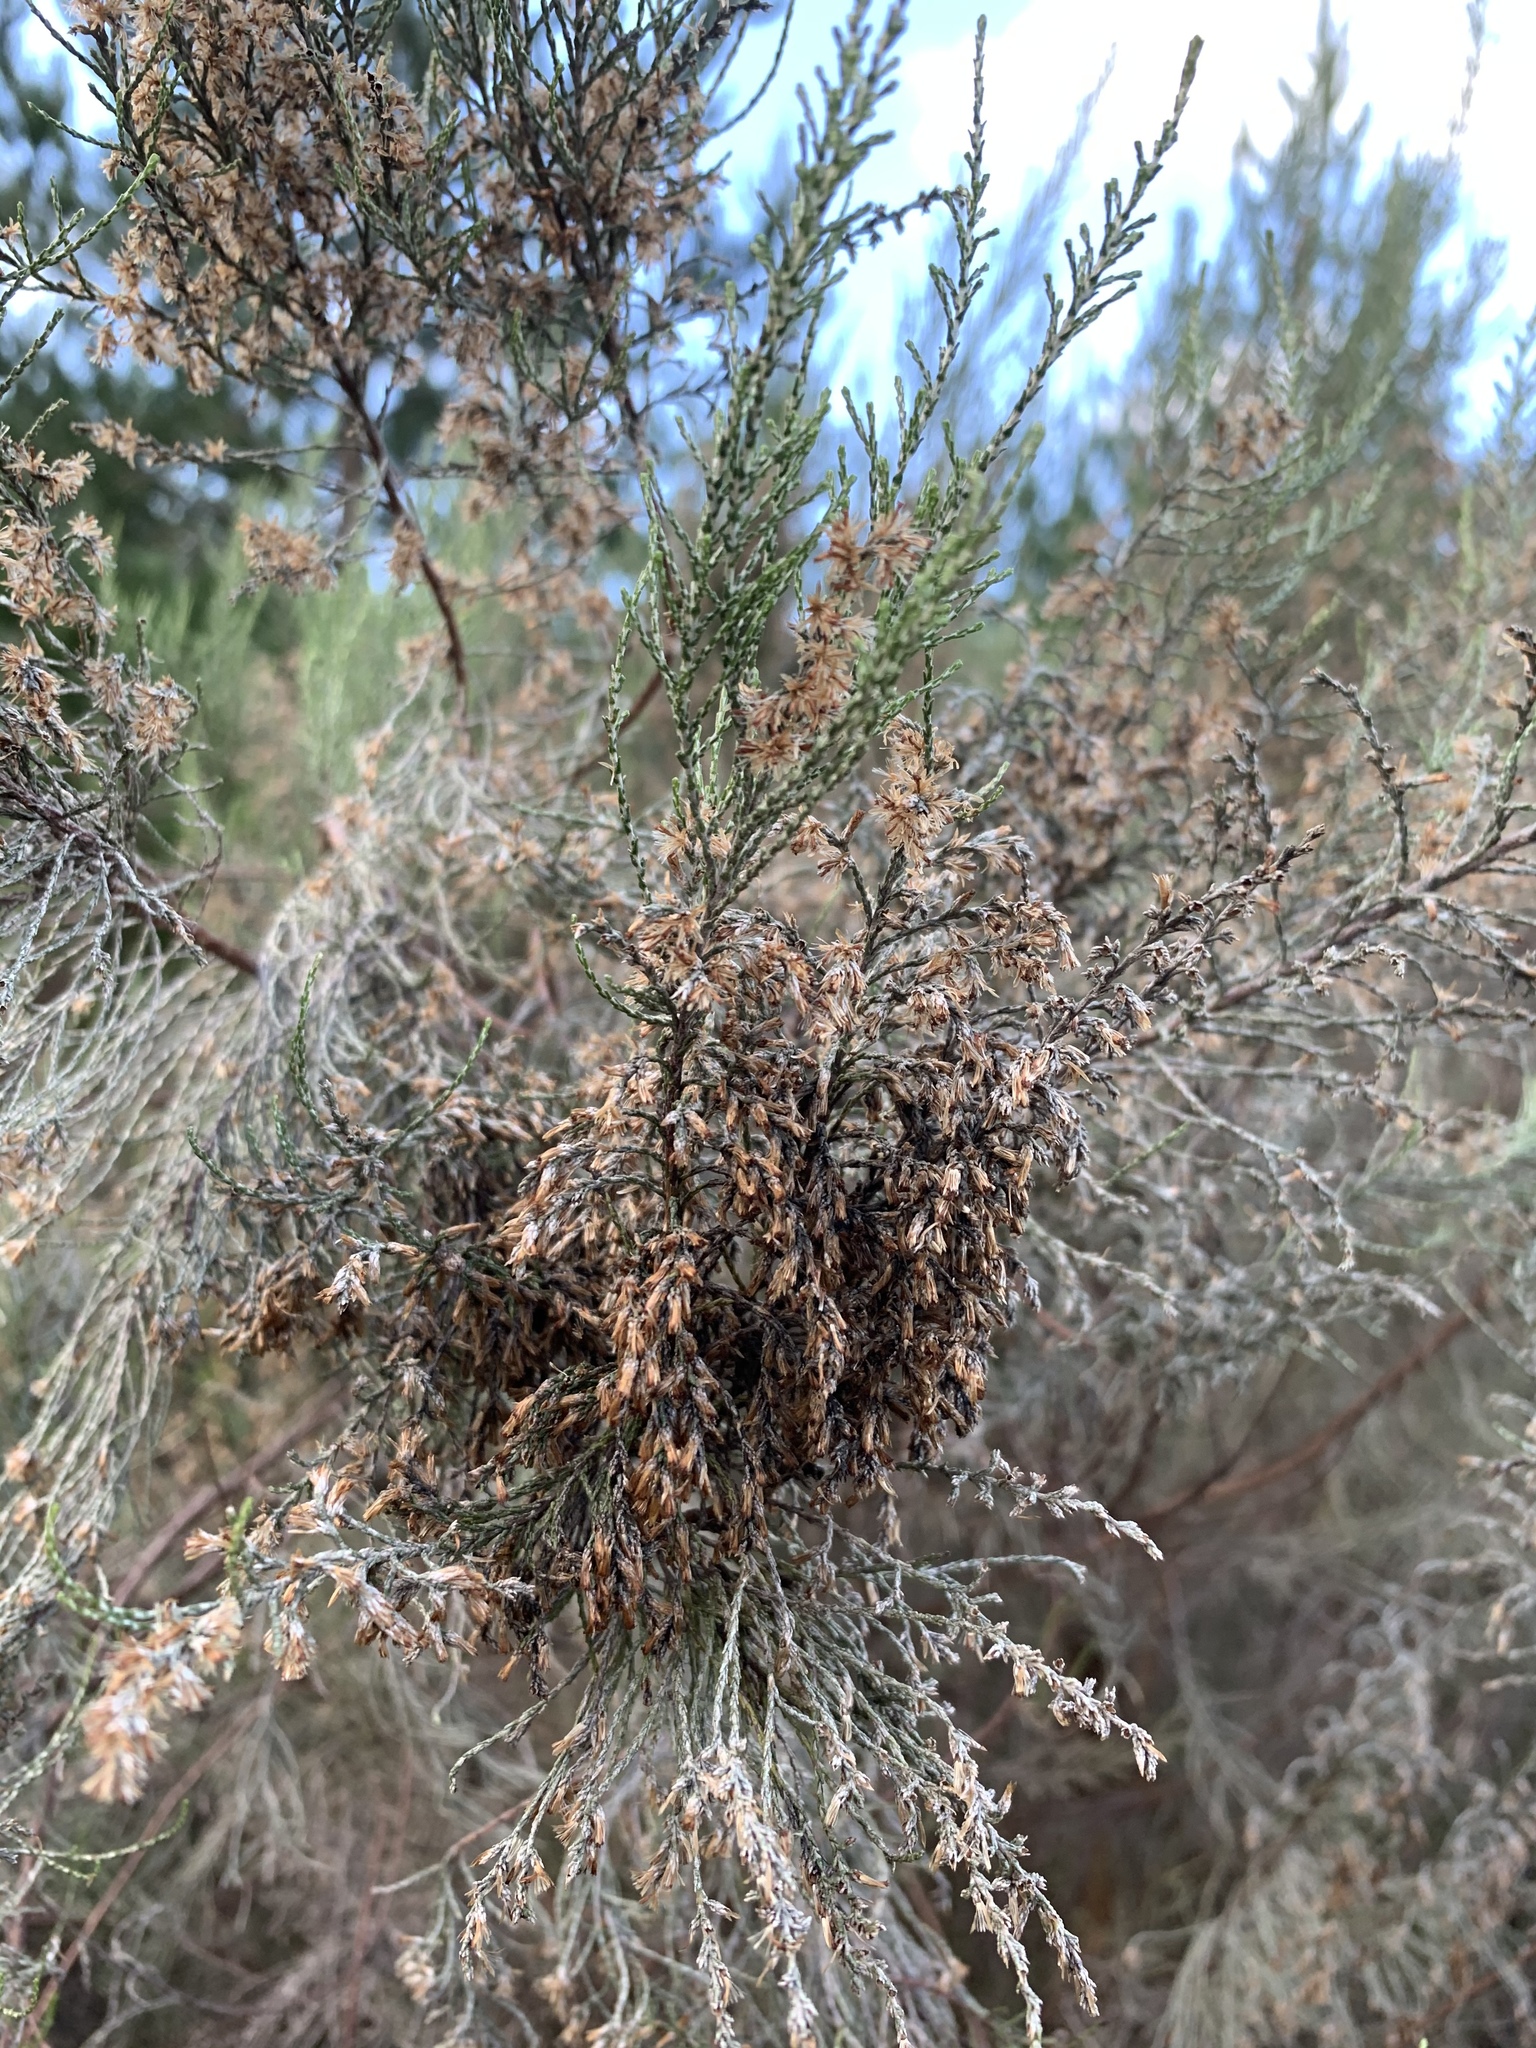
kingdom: Plantae
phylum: Tracheophyta
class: Magnoliopsida
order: Asterales
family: Asteraceae
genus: Dicerothamnus
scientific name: Dicerothamnus rhinocerotis
